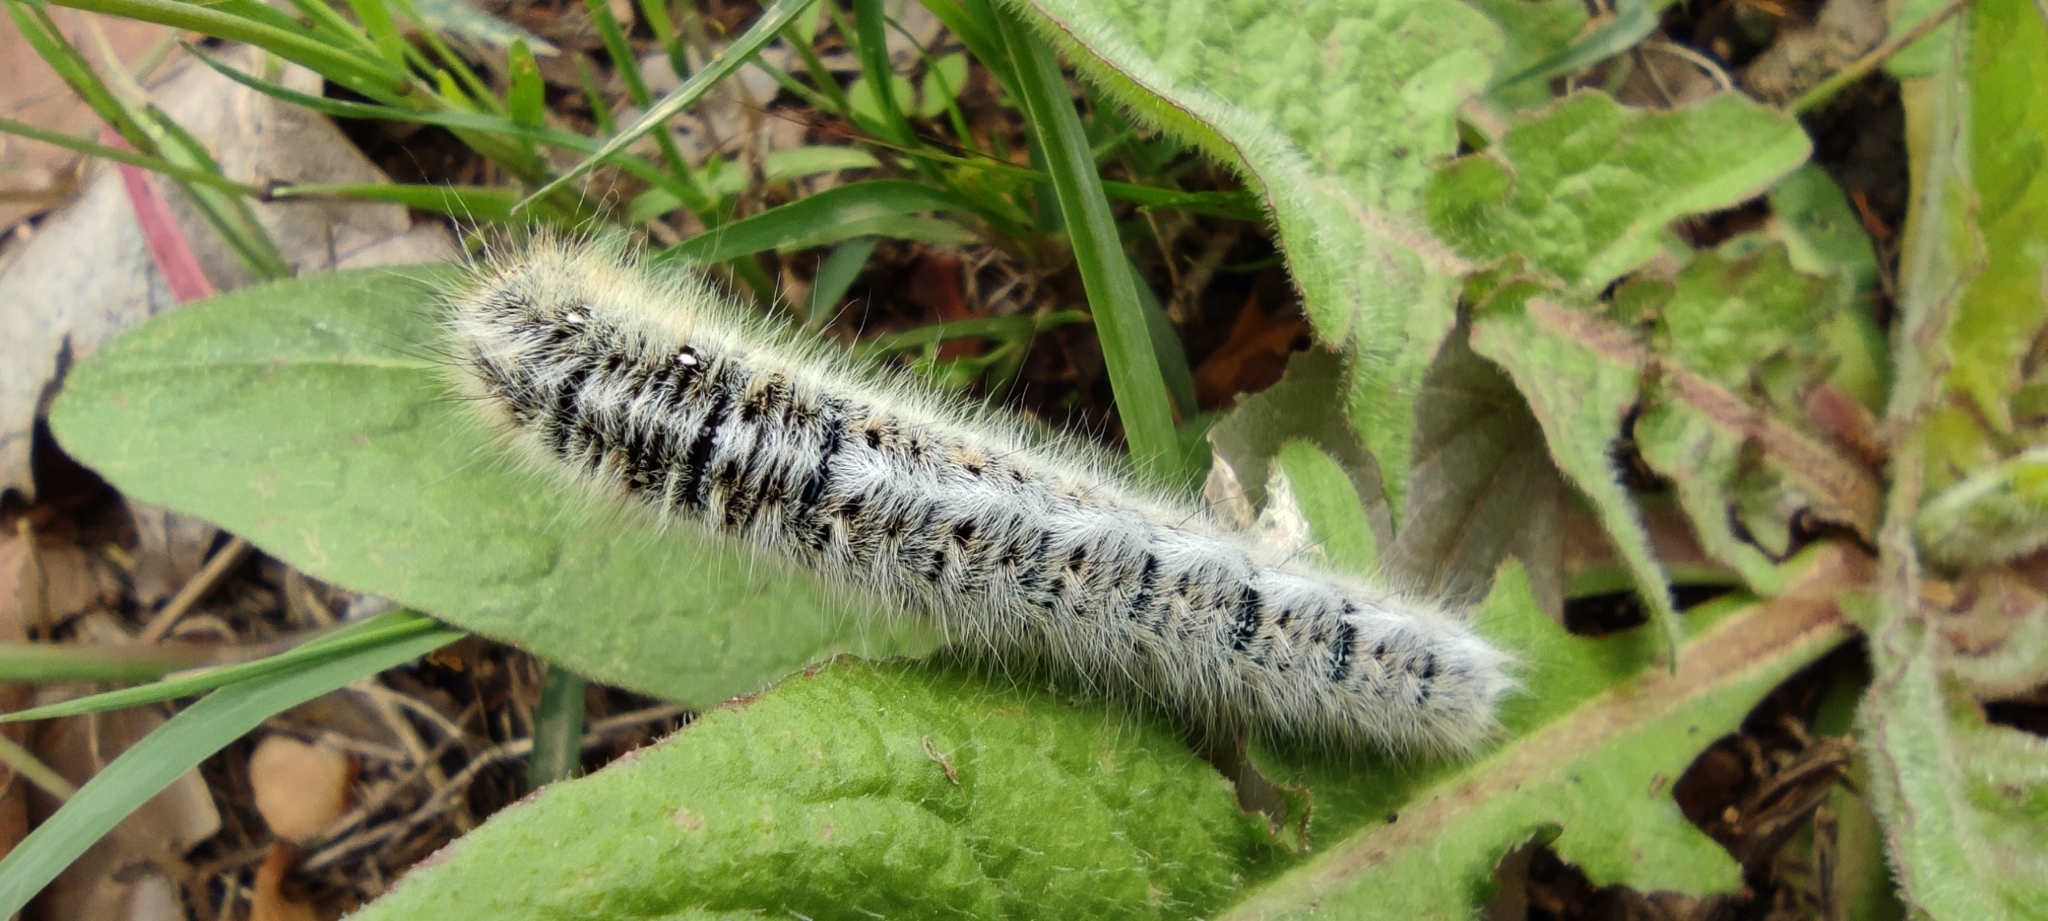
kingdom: Animalia
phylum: Arthropoda
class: Insecta
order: Lepidoptera
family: Lasiocampidae
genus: Lasiocampa
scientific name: Lasiocampa trifolii
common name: Grass eggar
